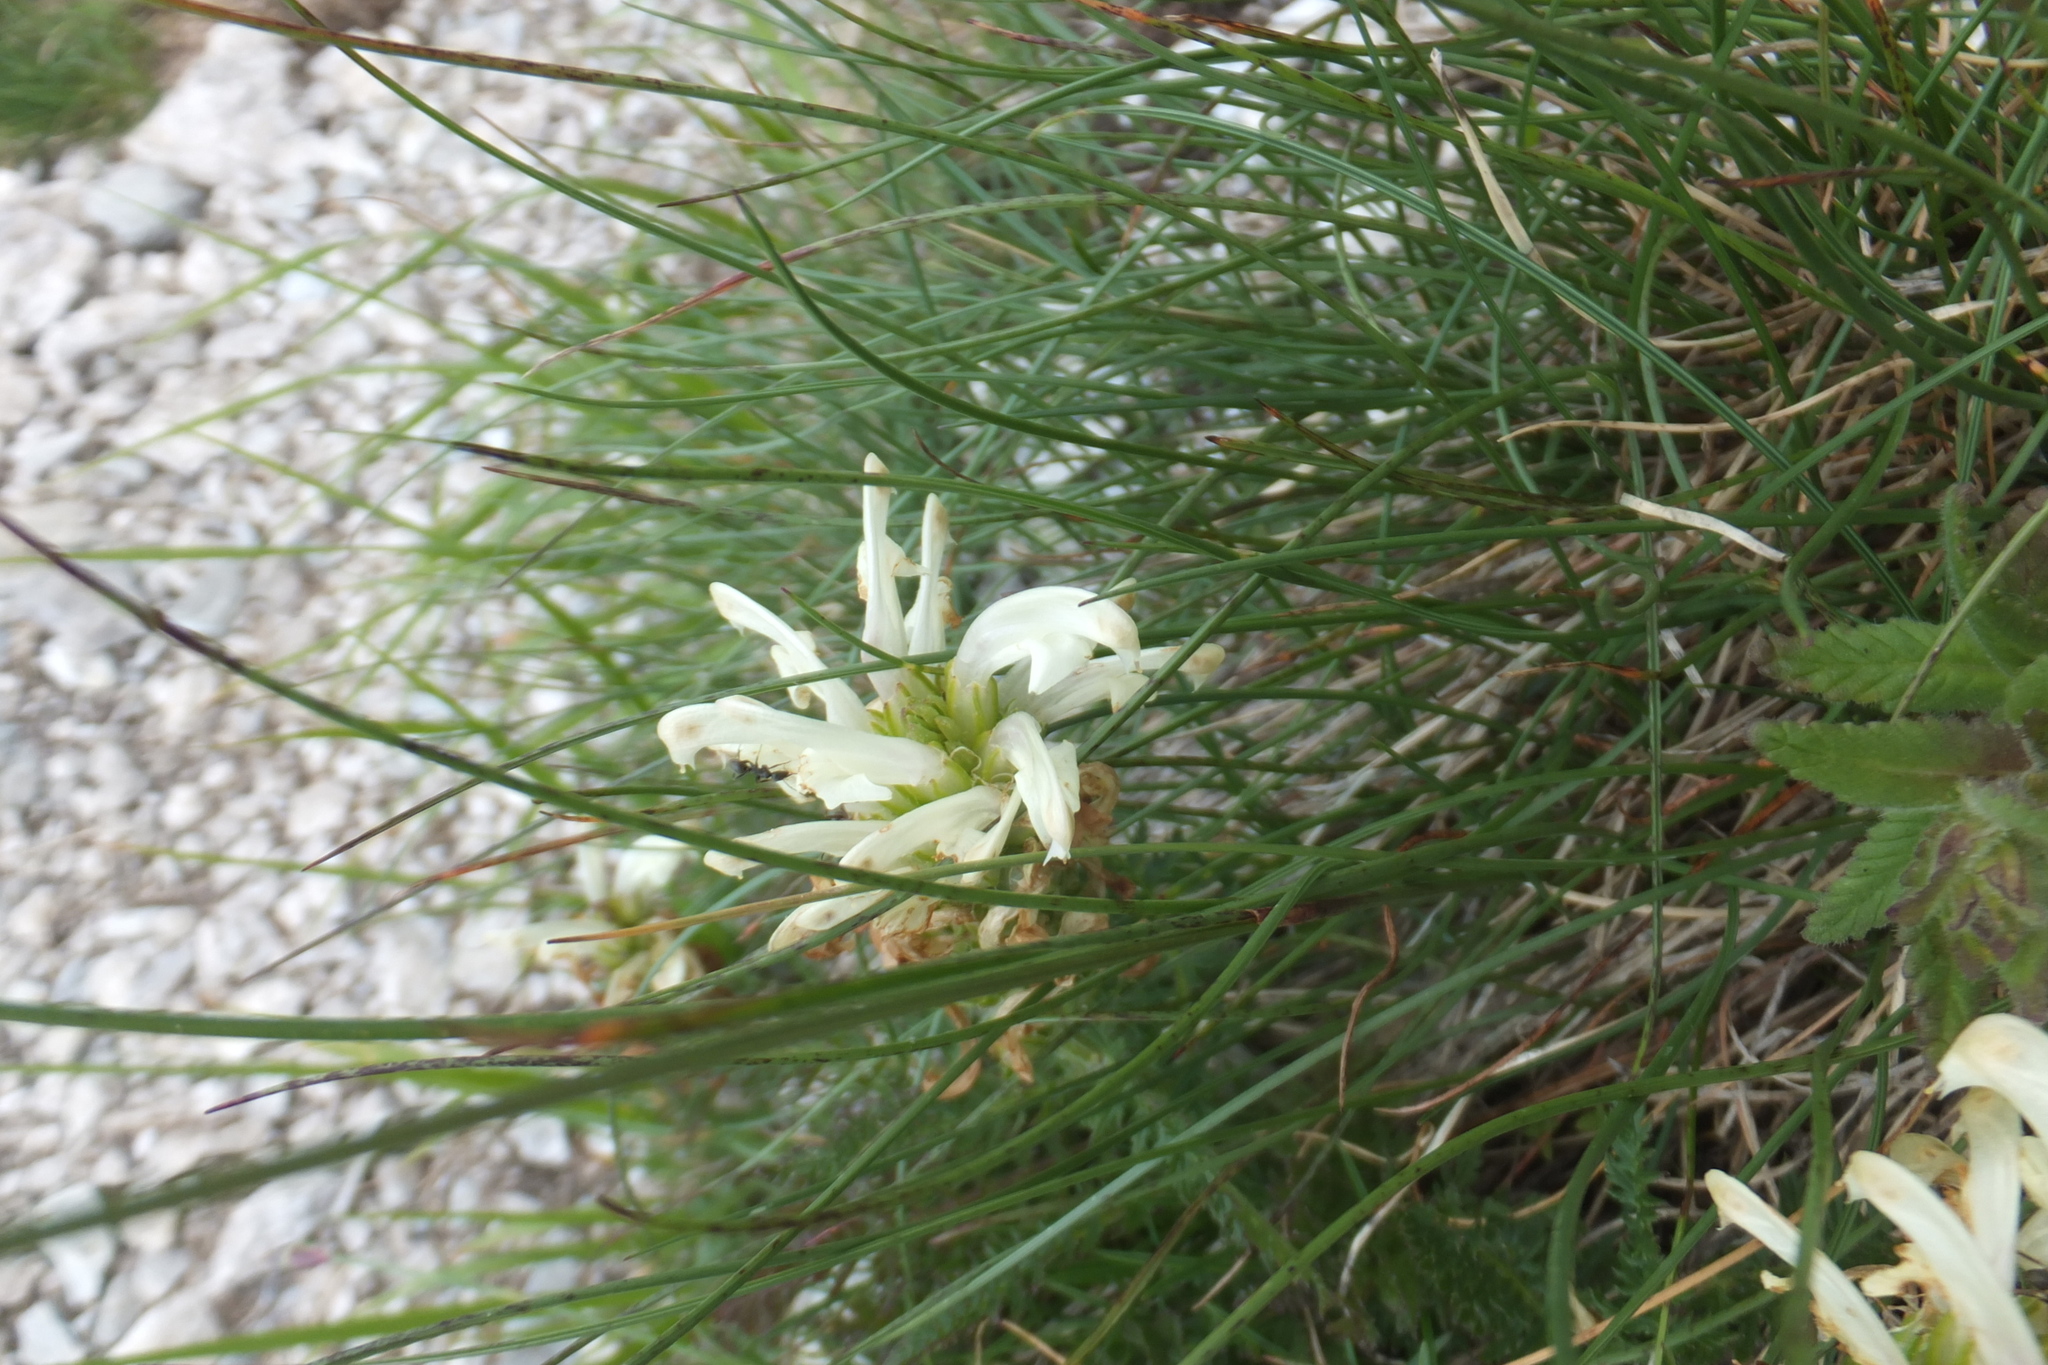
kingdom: Plantae
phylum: Tracheophyta
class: Magnoliopsida
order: Lamiales
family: Orobanchaceae
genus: Pedicularis
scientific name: Pedicularis comosa
